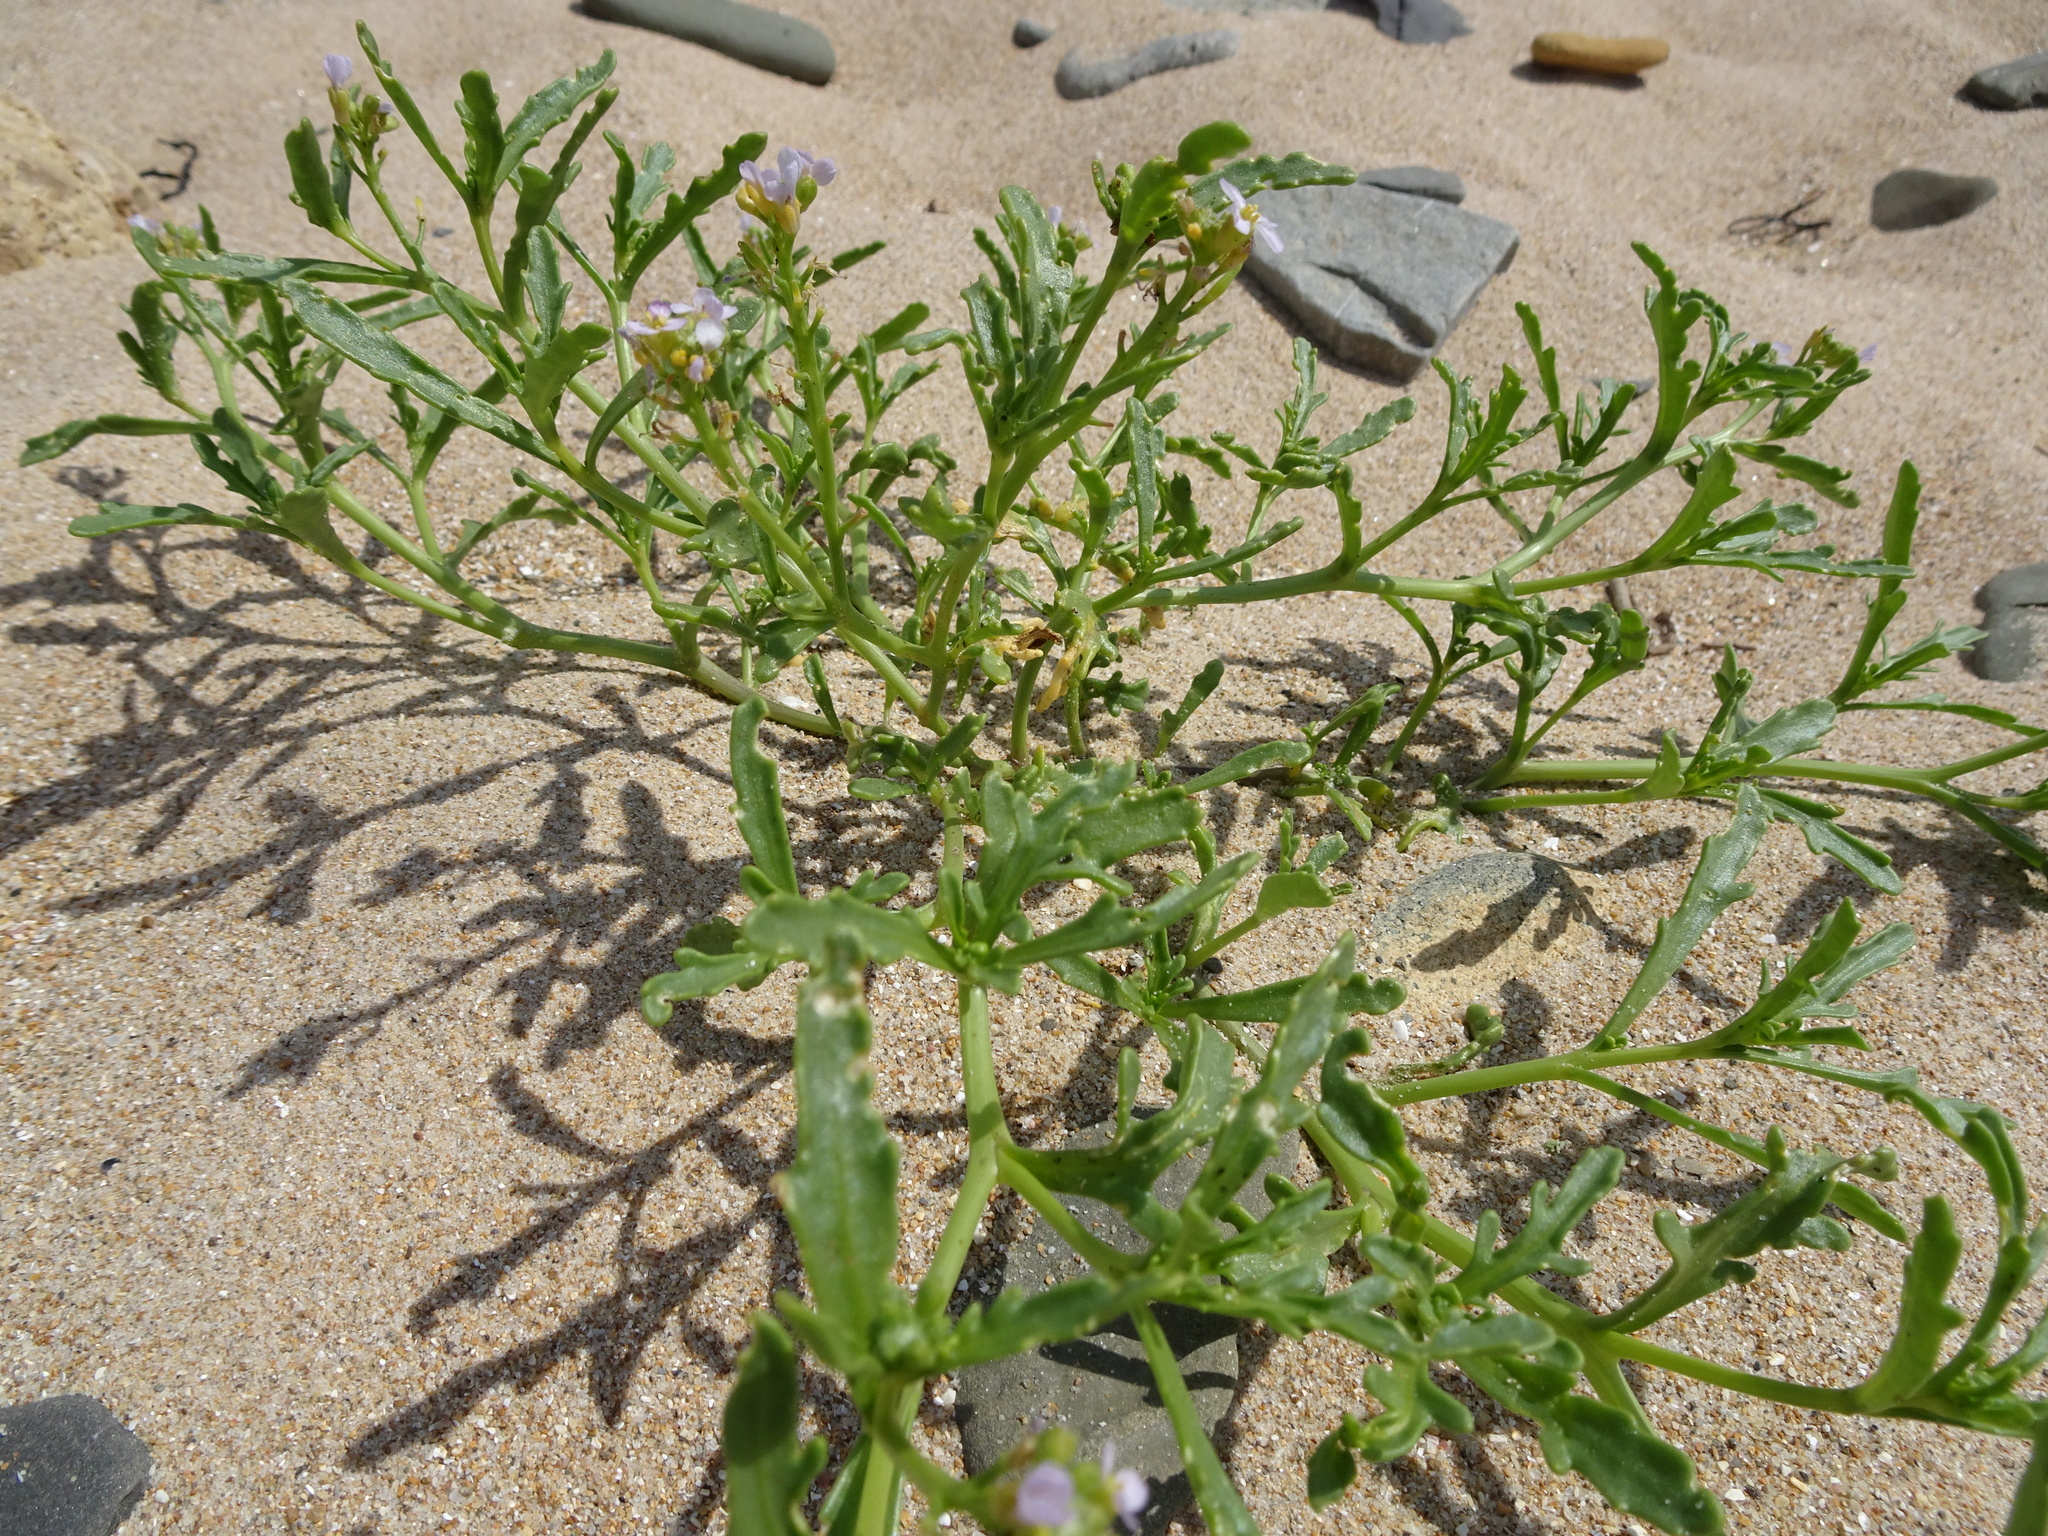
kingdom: Plantae
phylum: Tracheophyta
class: Magnoliopsida
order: Brassicales
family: Brassicaceae
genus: Cakile
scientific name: Cakile maritima
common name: Sea rocket
